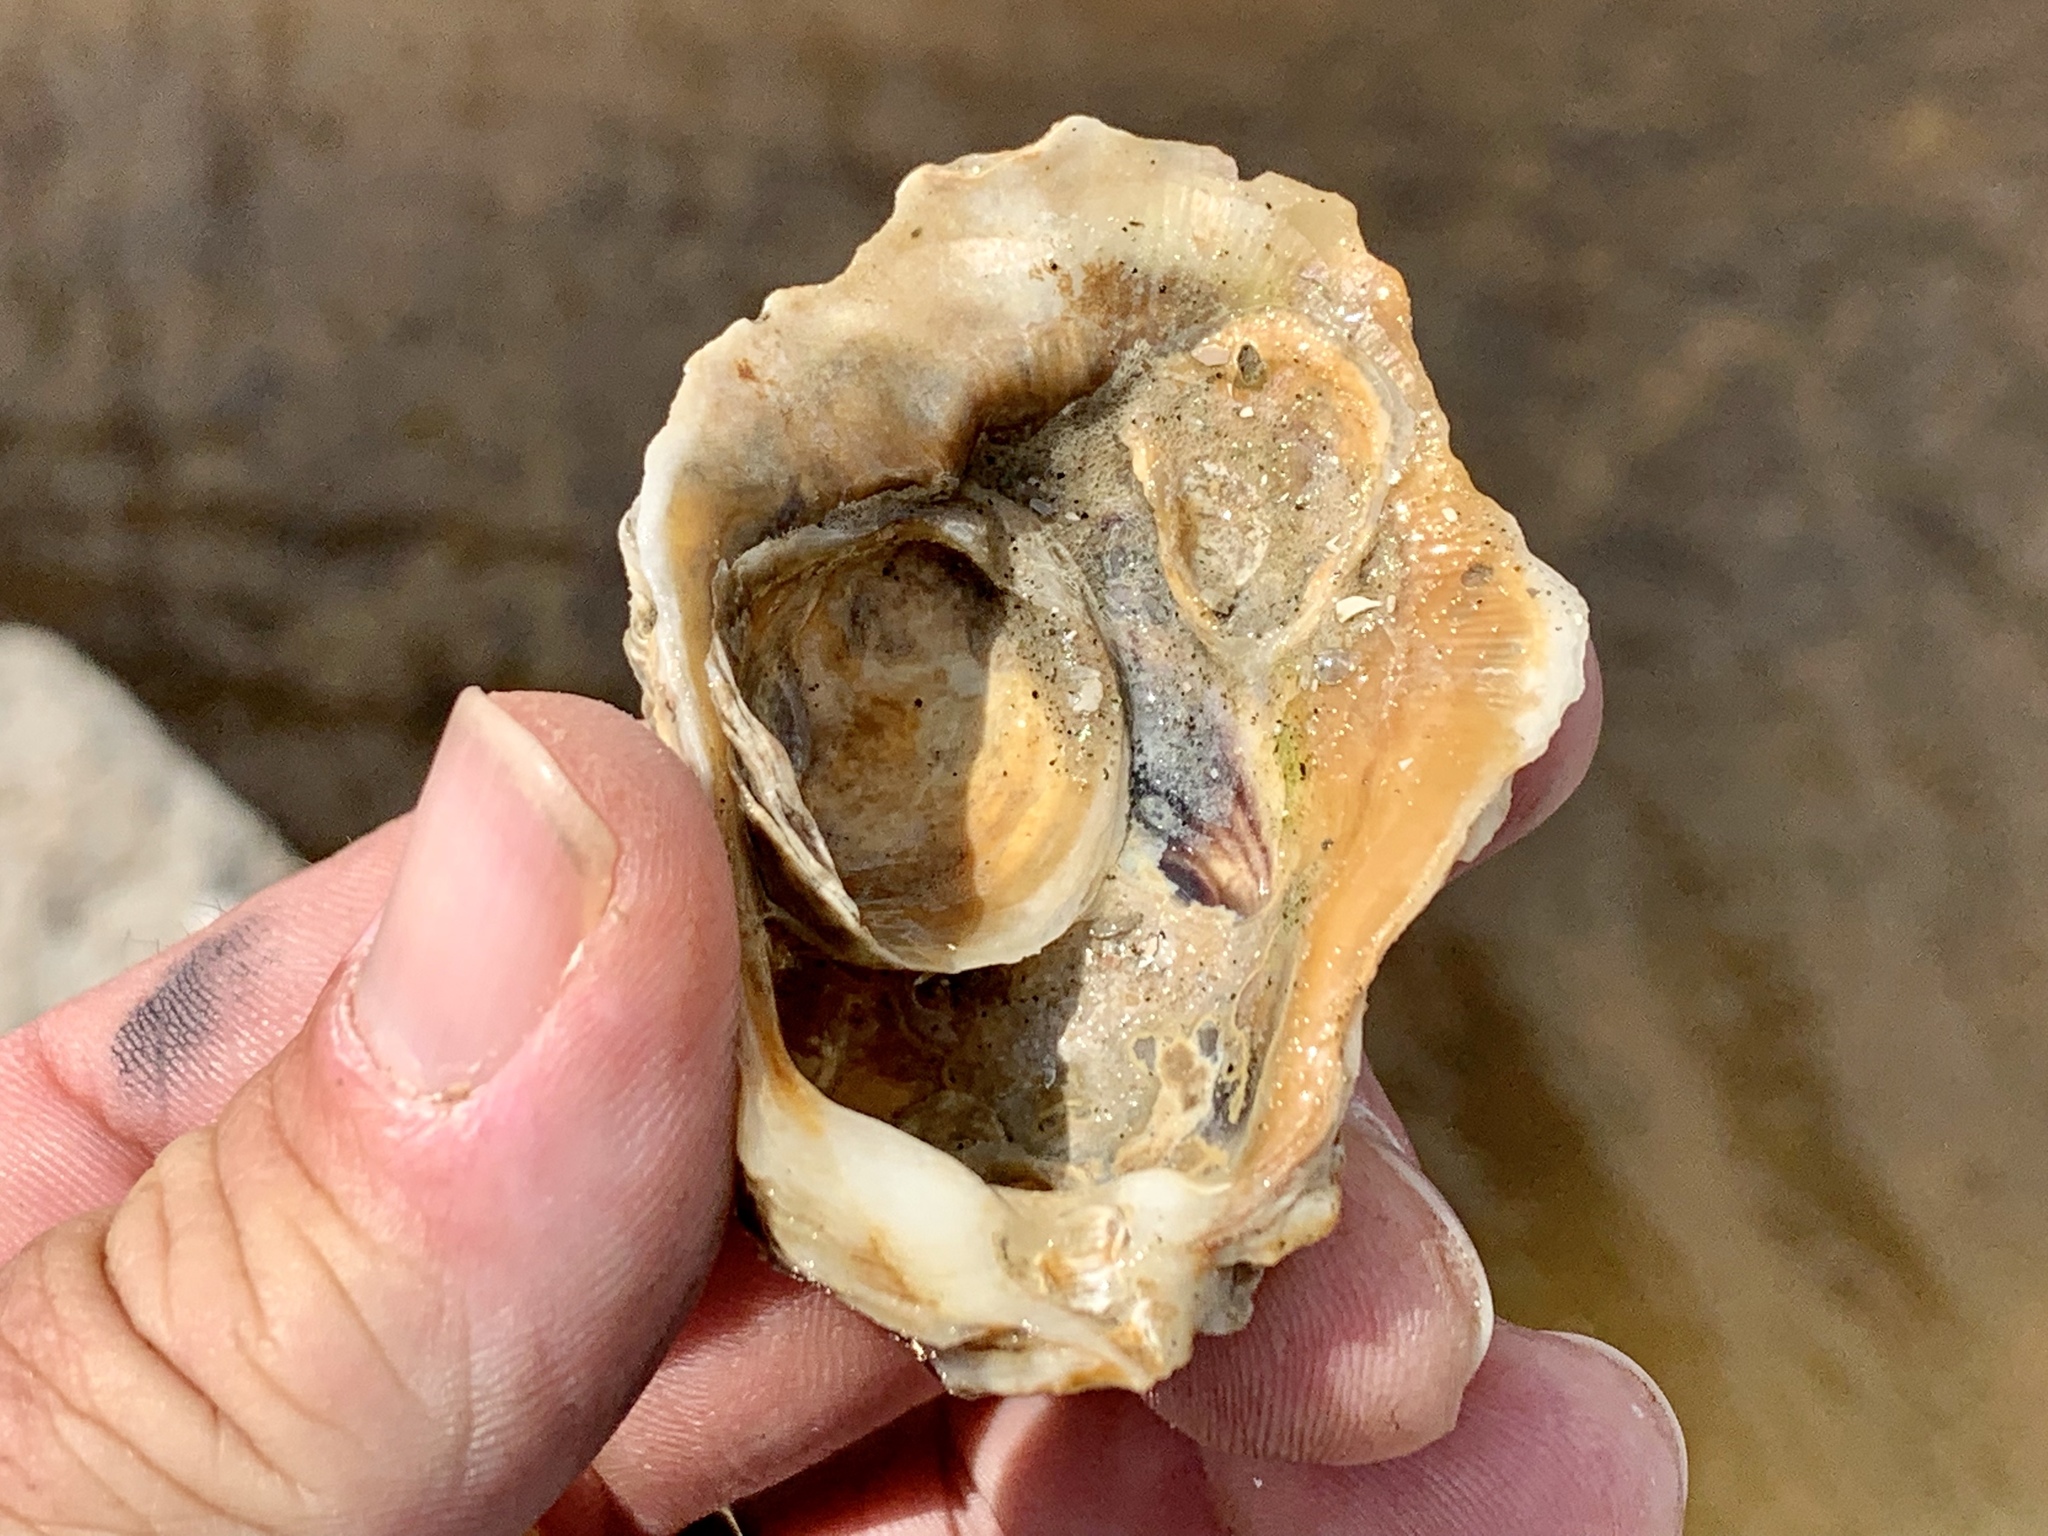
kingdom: Animalia
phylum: Mollusca
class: Bivalvia
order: Ostreida
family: Ostreidae
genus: Crassostrea
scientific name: Crassostrea virginica
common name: American oyster
